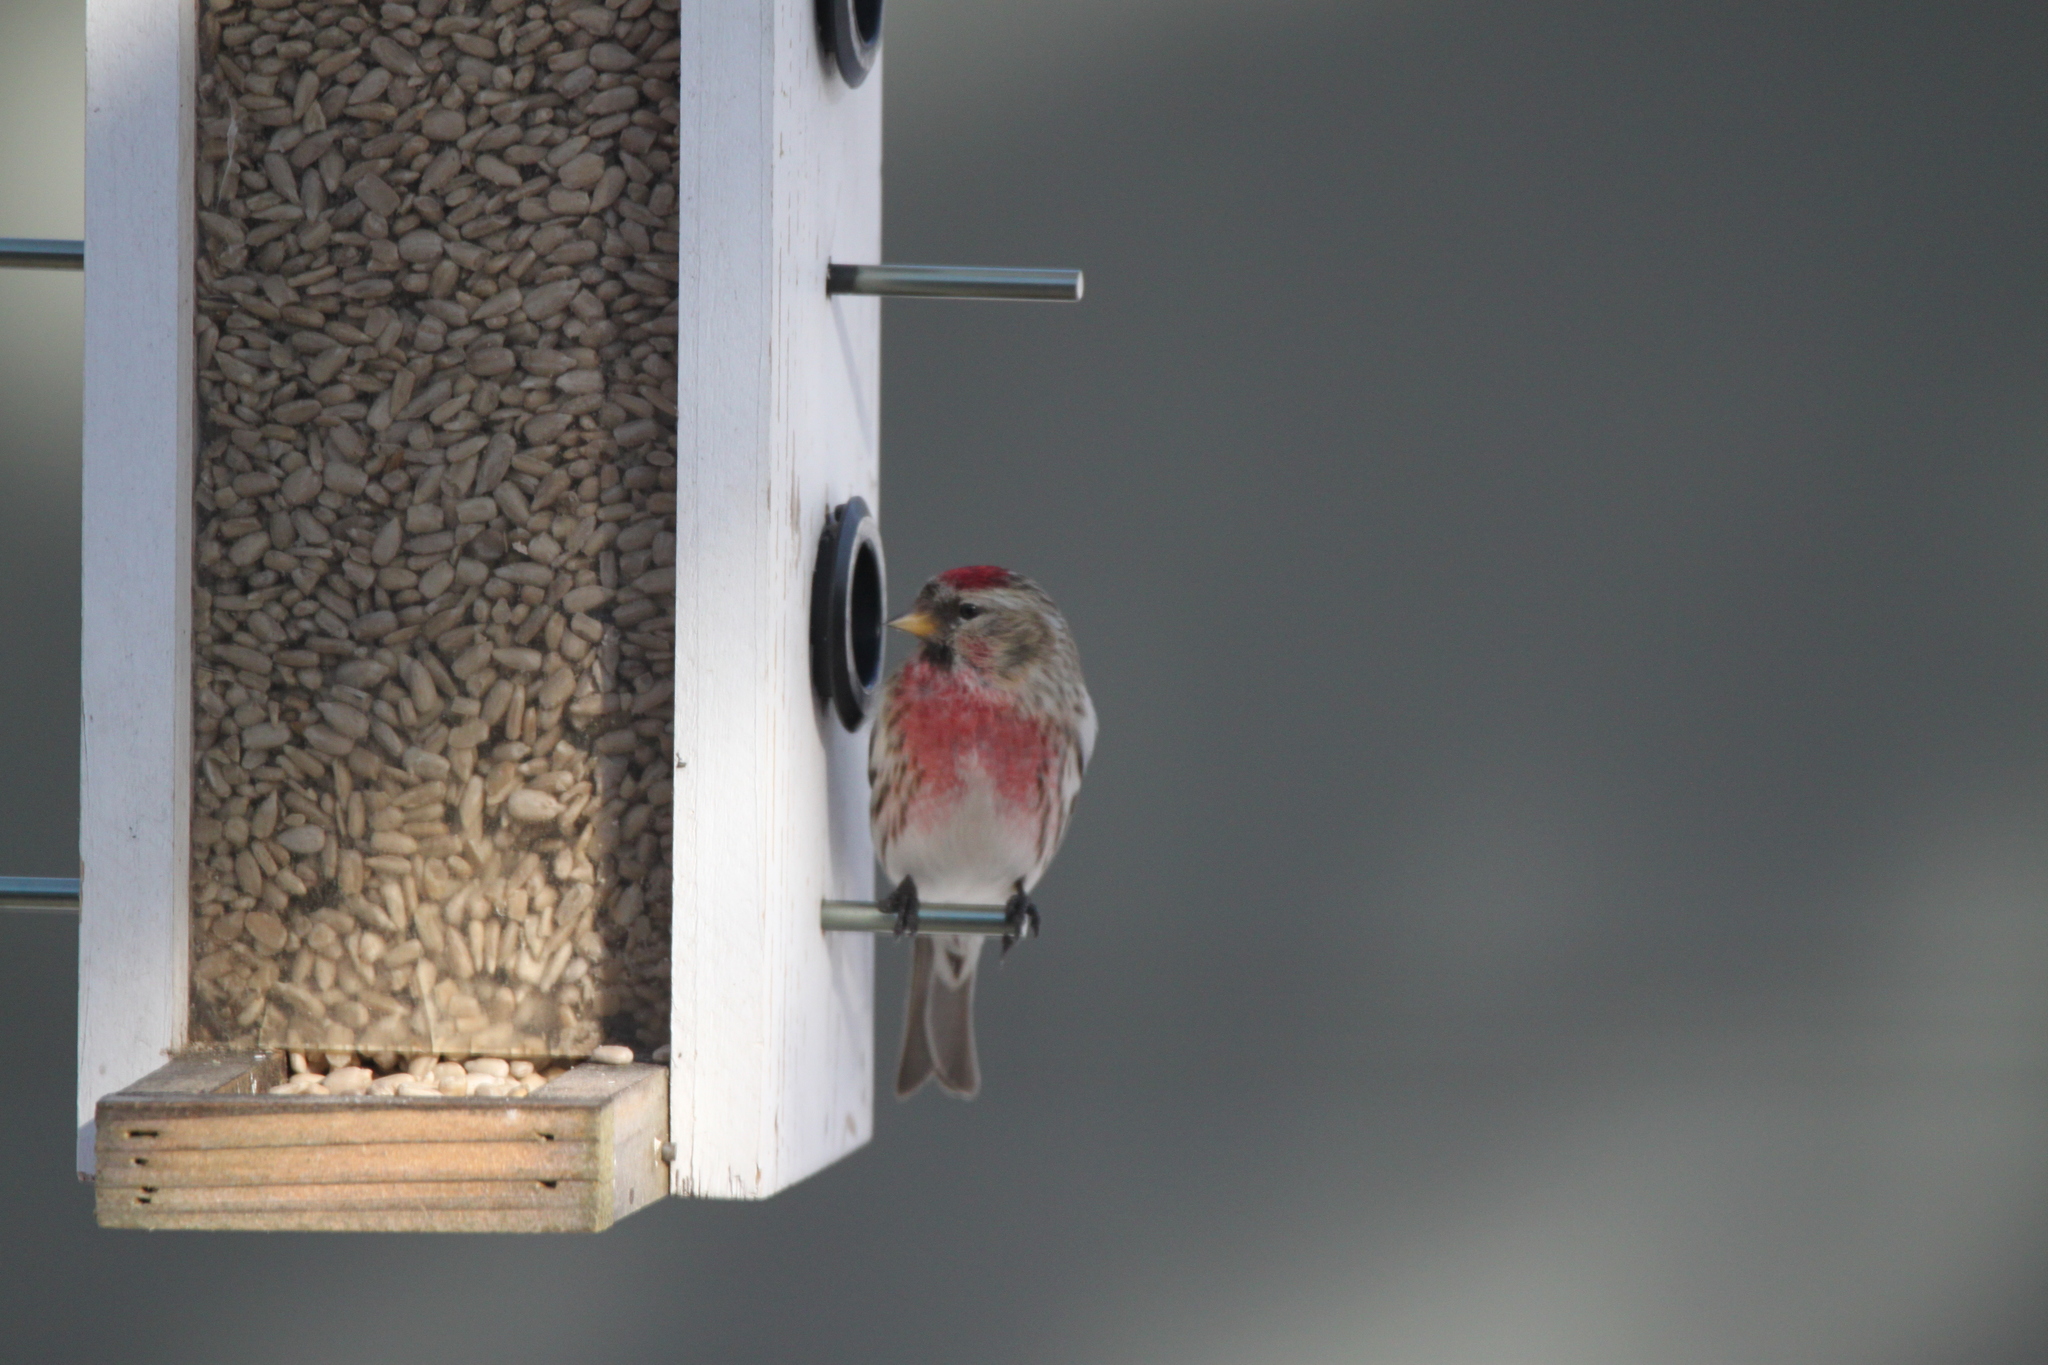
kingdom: Animalia
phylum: Chordata
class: Aves
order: Passeriformes
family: Fringillidae
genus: Acanthis
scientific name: Acanthis flammea
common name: Common redpoll
